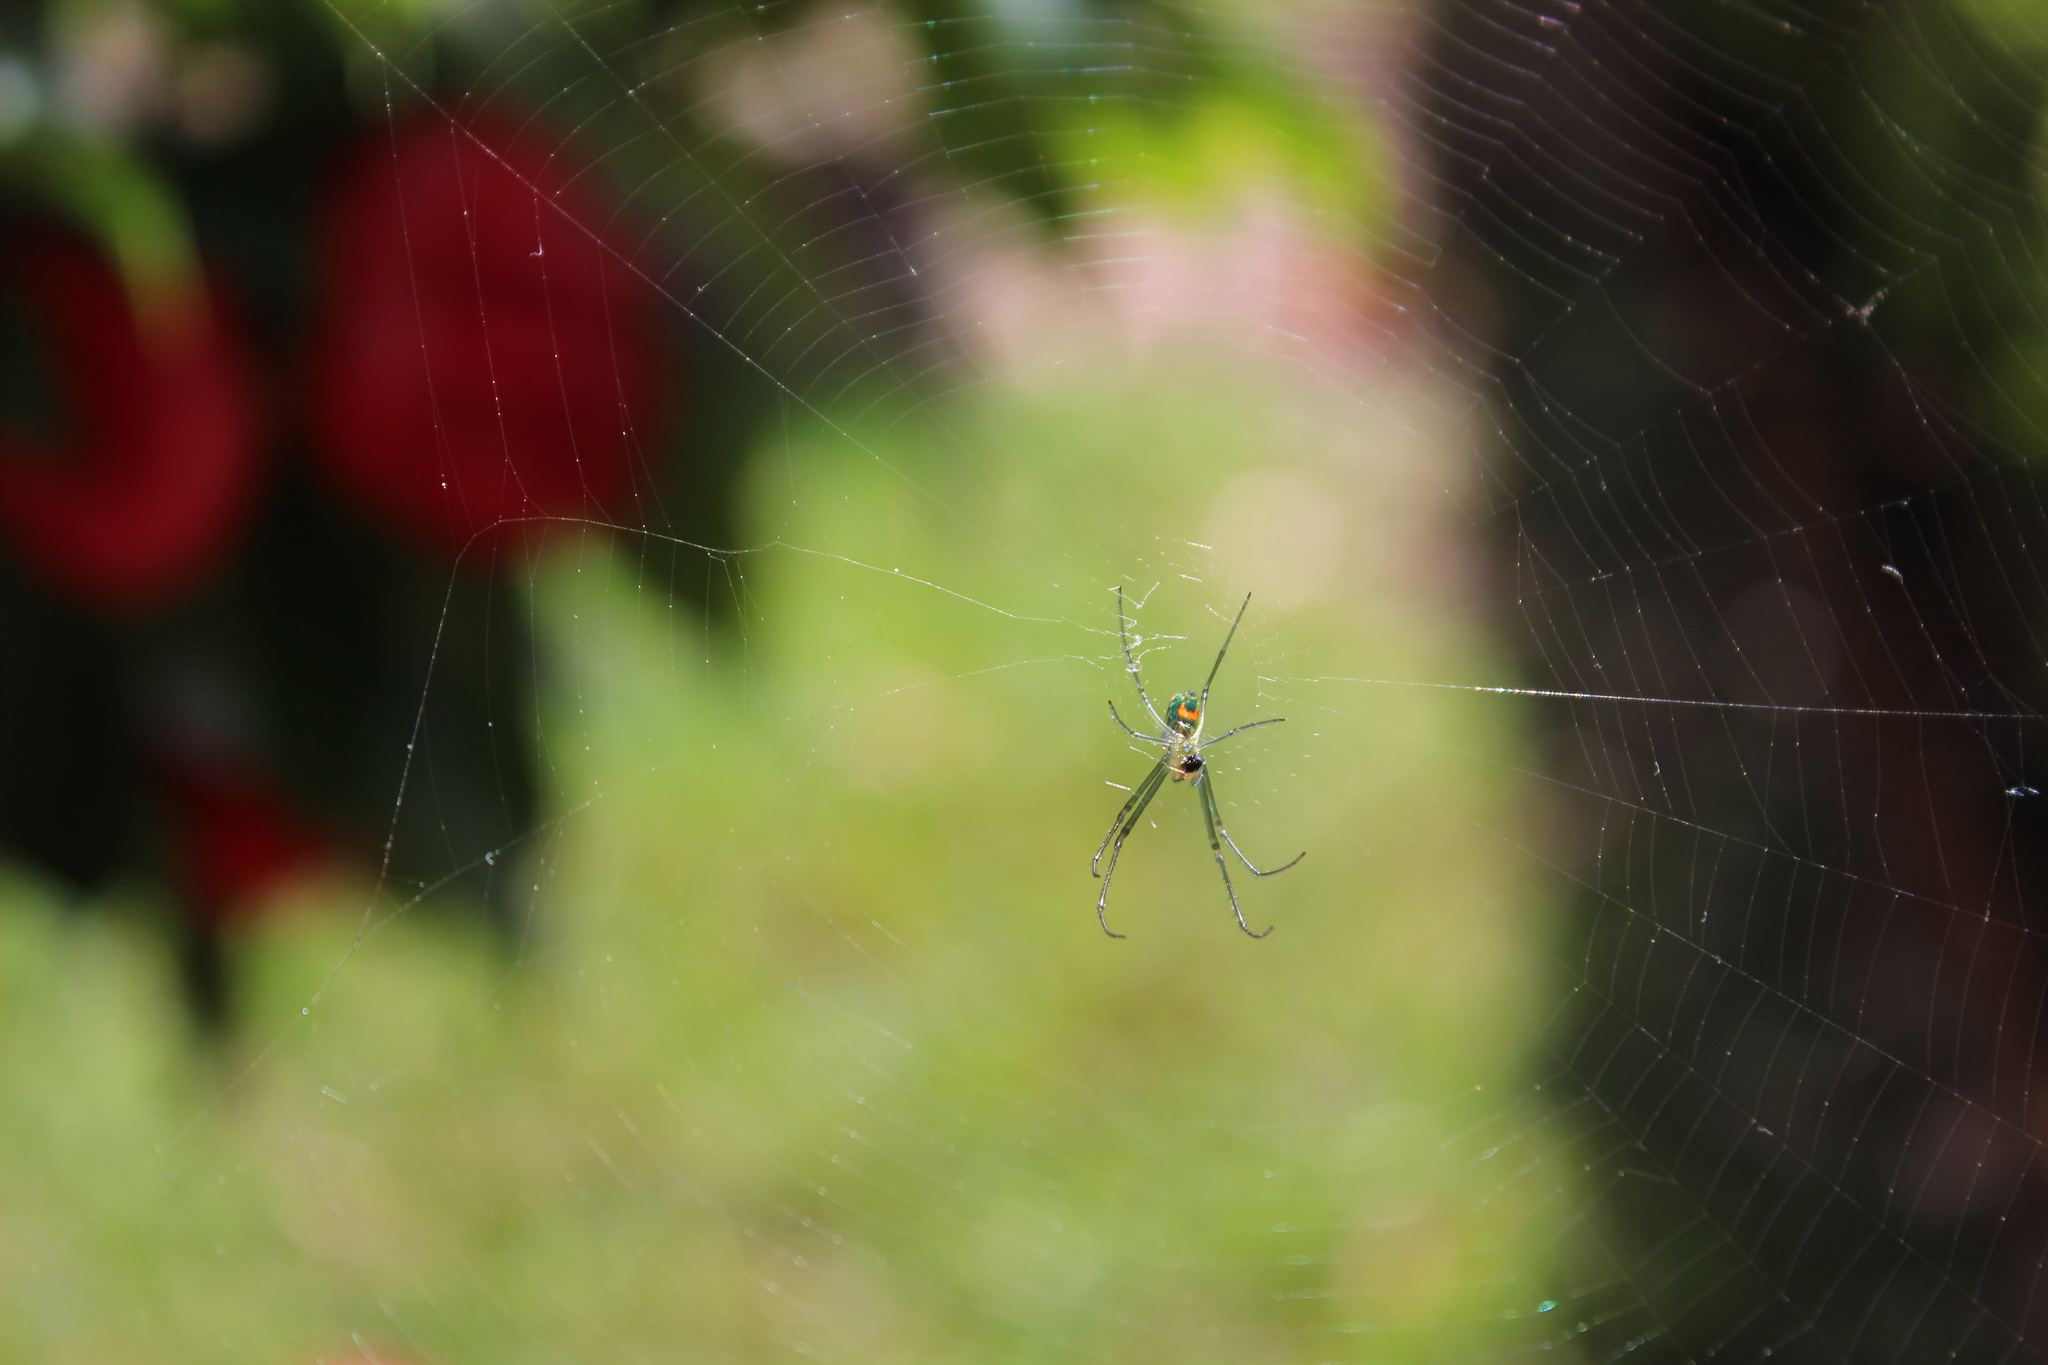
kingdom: Animalia
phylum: Arthropoda
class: Arachnida
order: Araneae
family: Tetragnathidae
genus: Leucauge
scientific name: Leucauge argyrobapta
